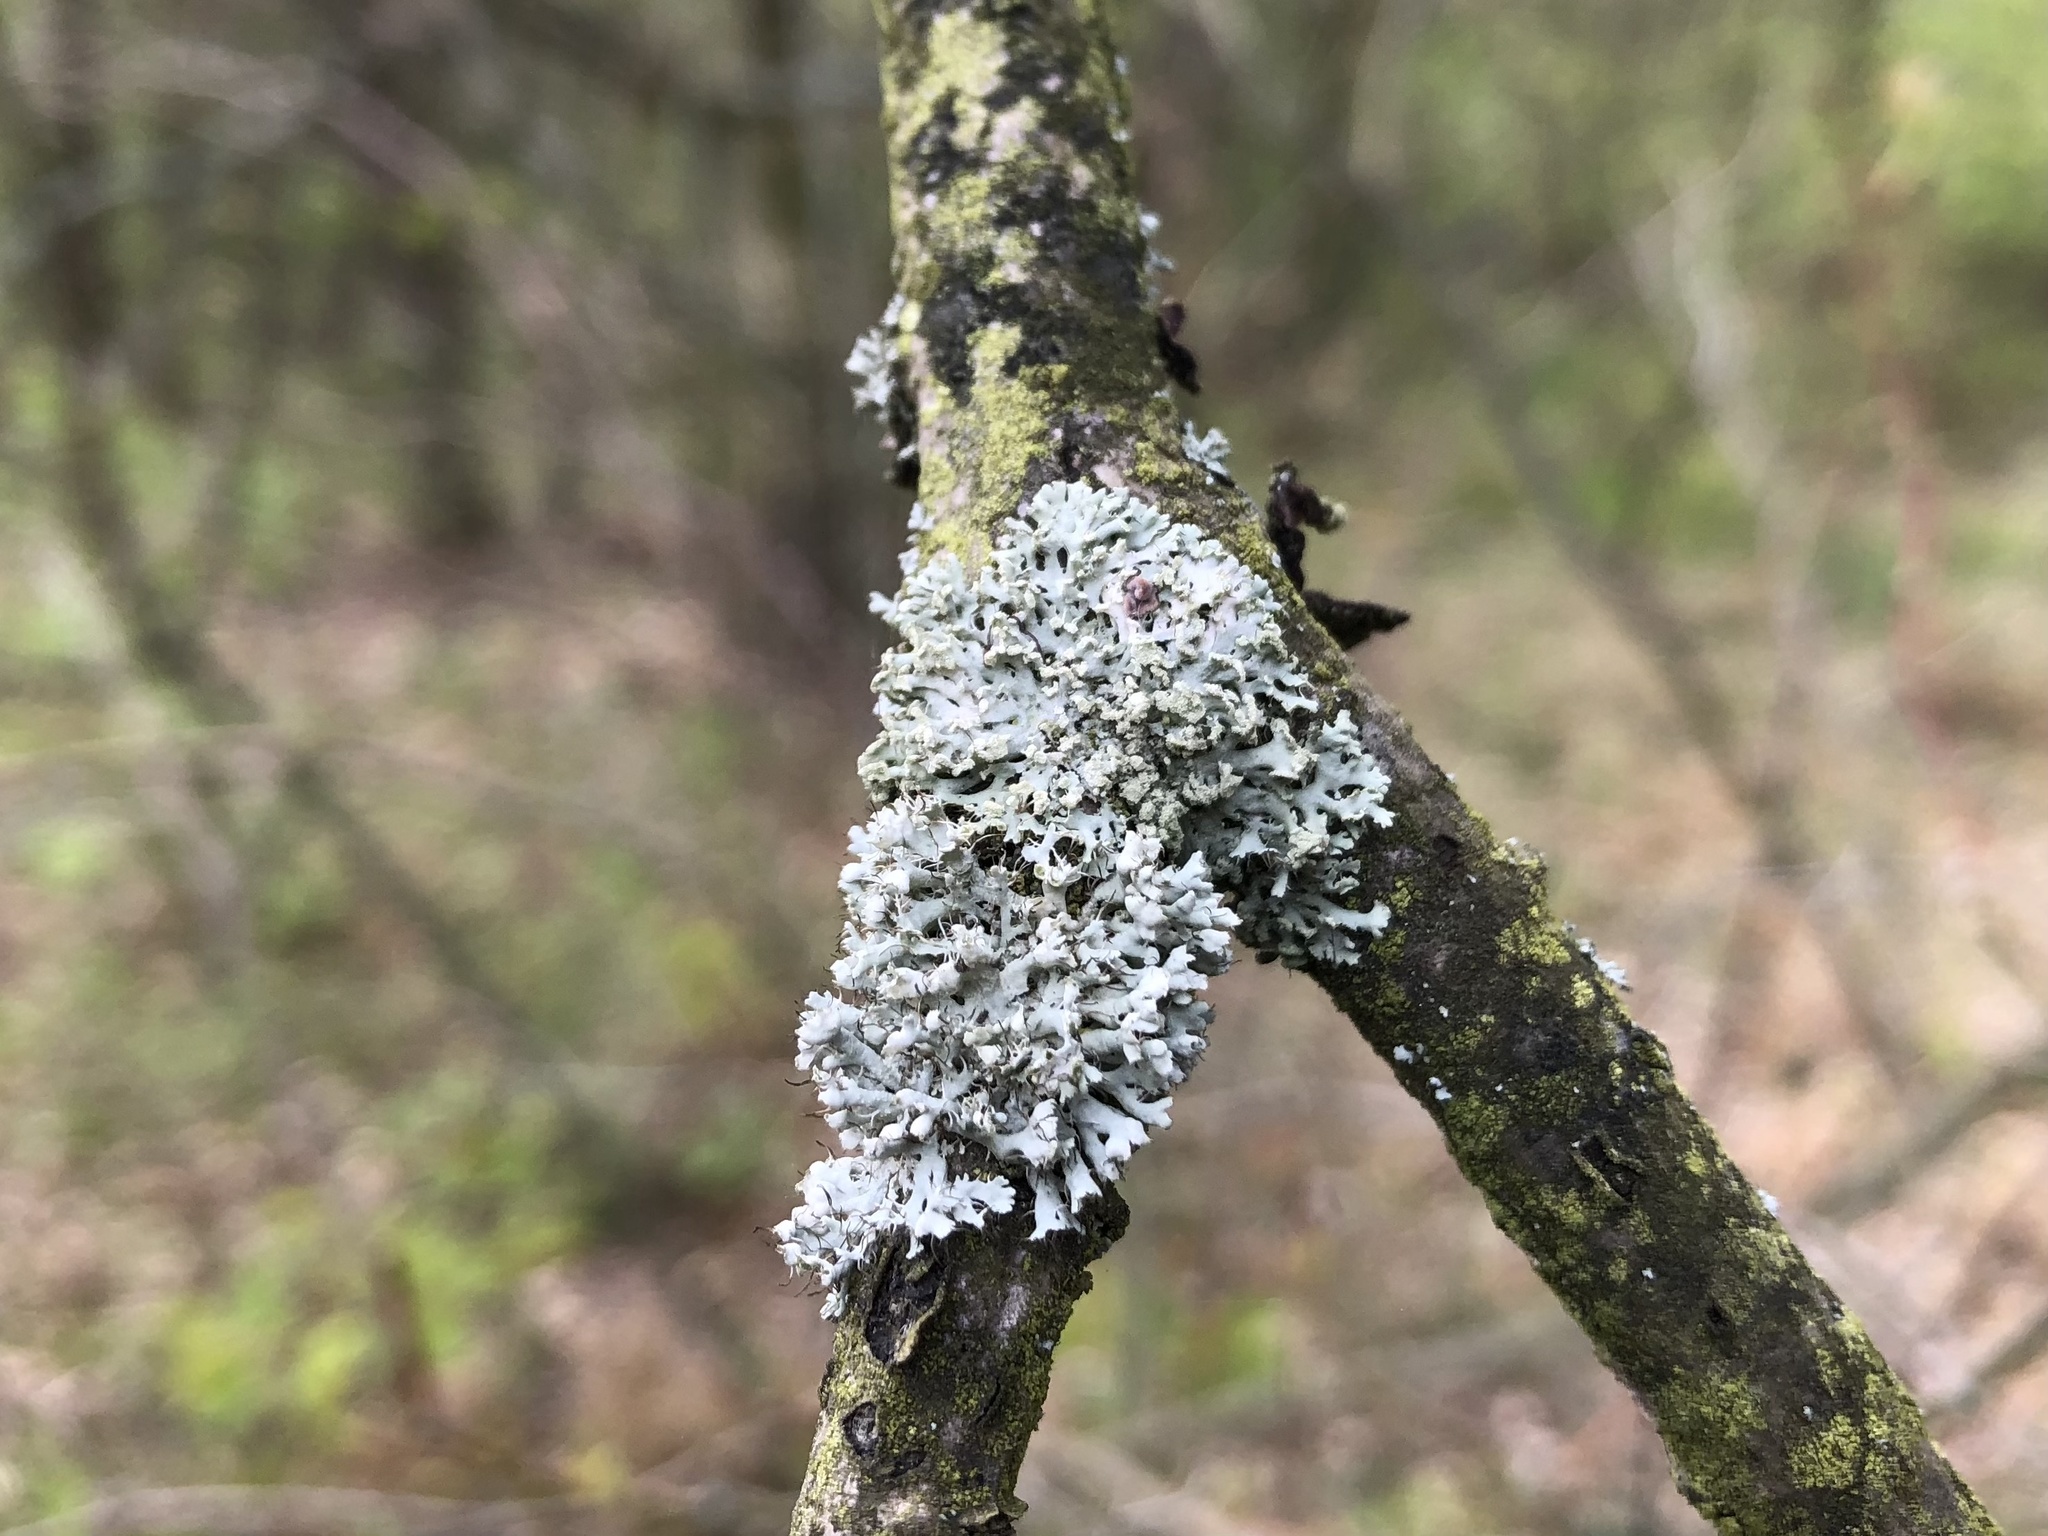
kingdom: Fungi
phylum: Ascomycota
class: Lecanoromycetes
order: Caliciales
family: Physciaceae
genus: Physcia
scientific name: Physcia adscendens
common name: Hooded rosette lichen
